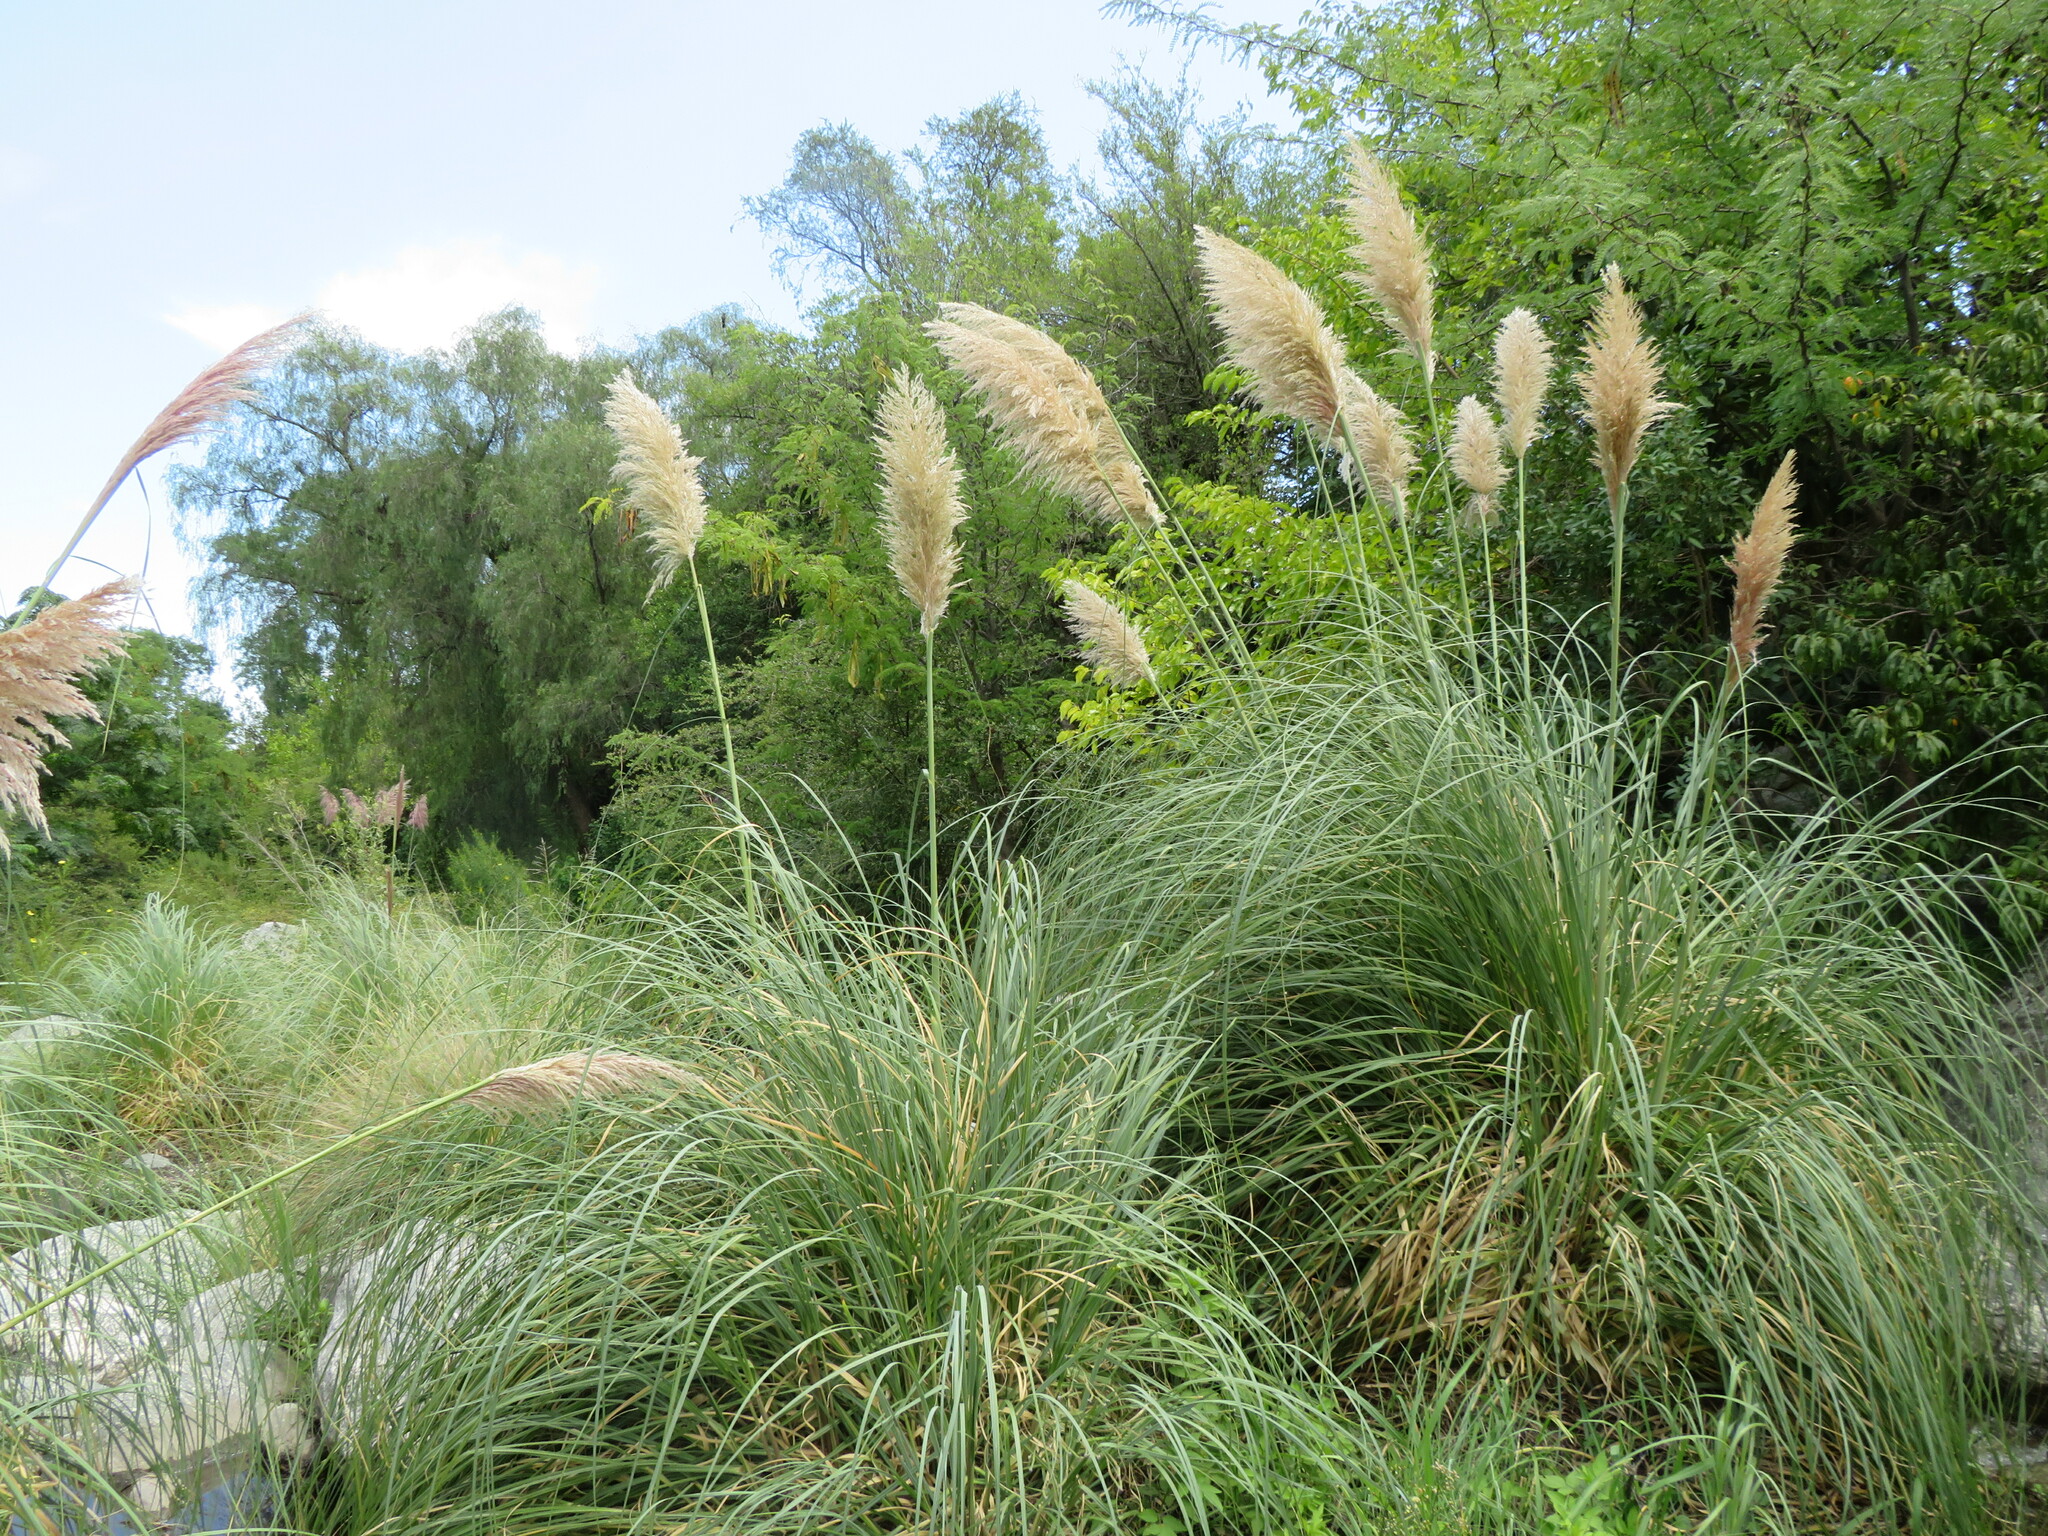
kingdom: Plantae
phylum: Tracheophyta
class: Liliopsida
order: Poales
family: Poaceae
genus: Cortaderia
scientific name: Cortaderia selloana
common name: Uruguayan pampas grass
